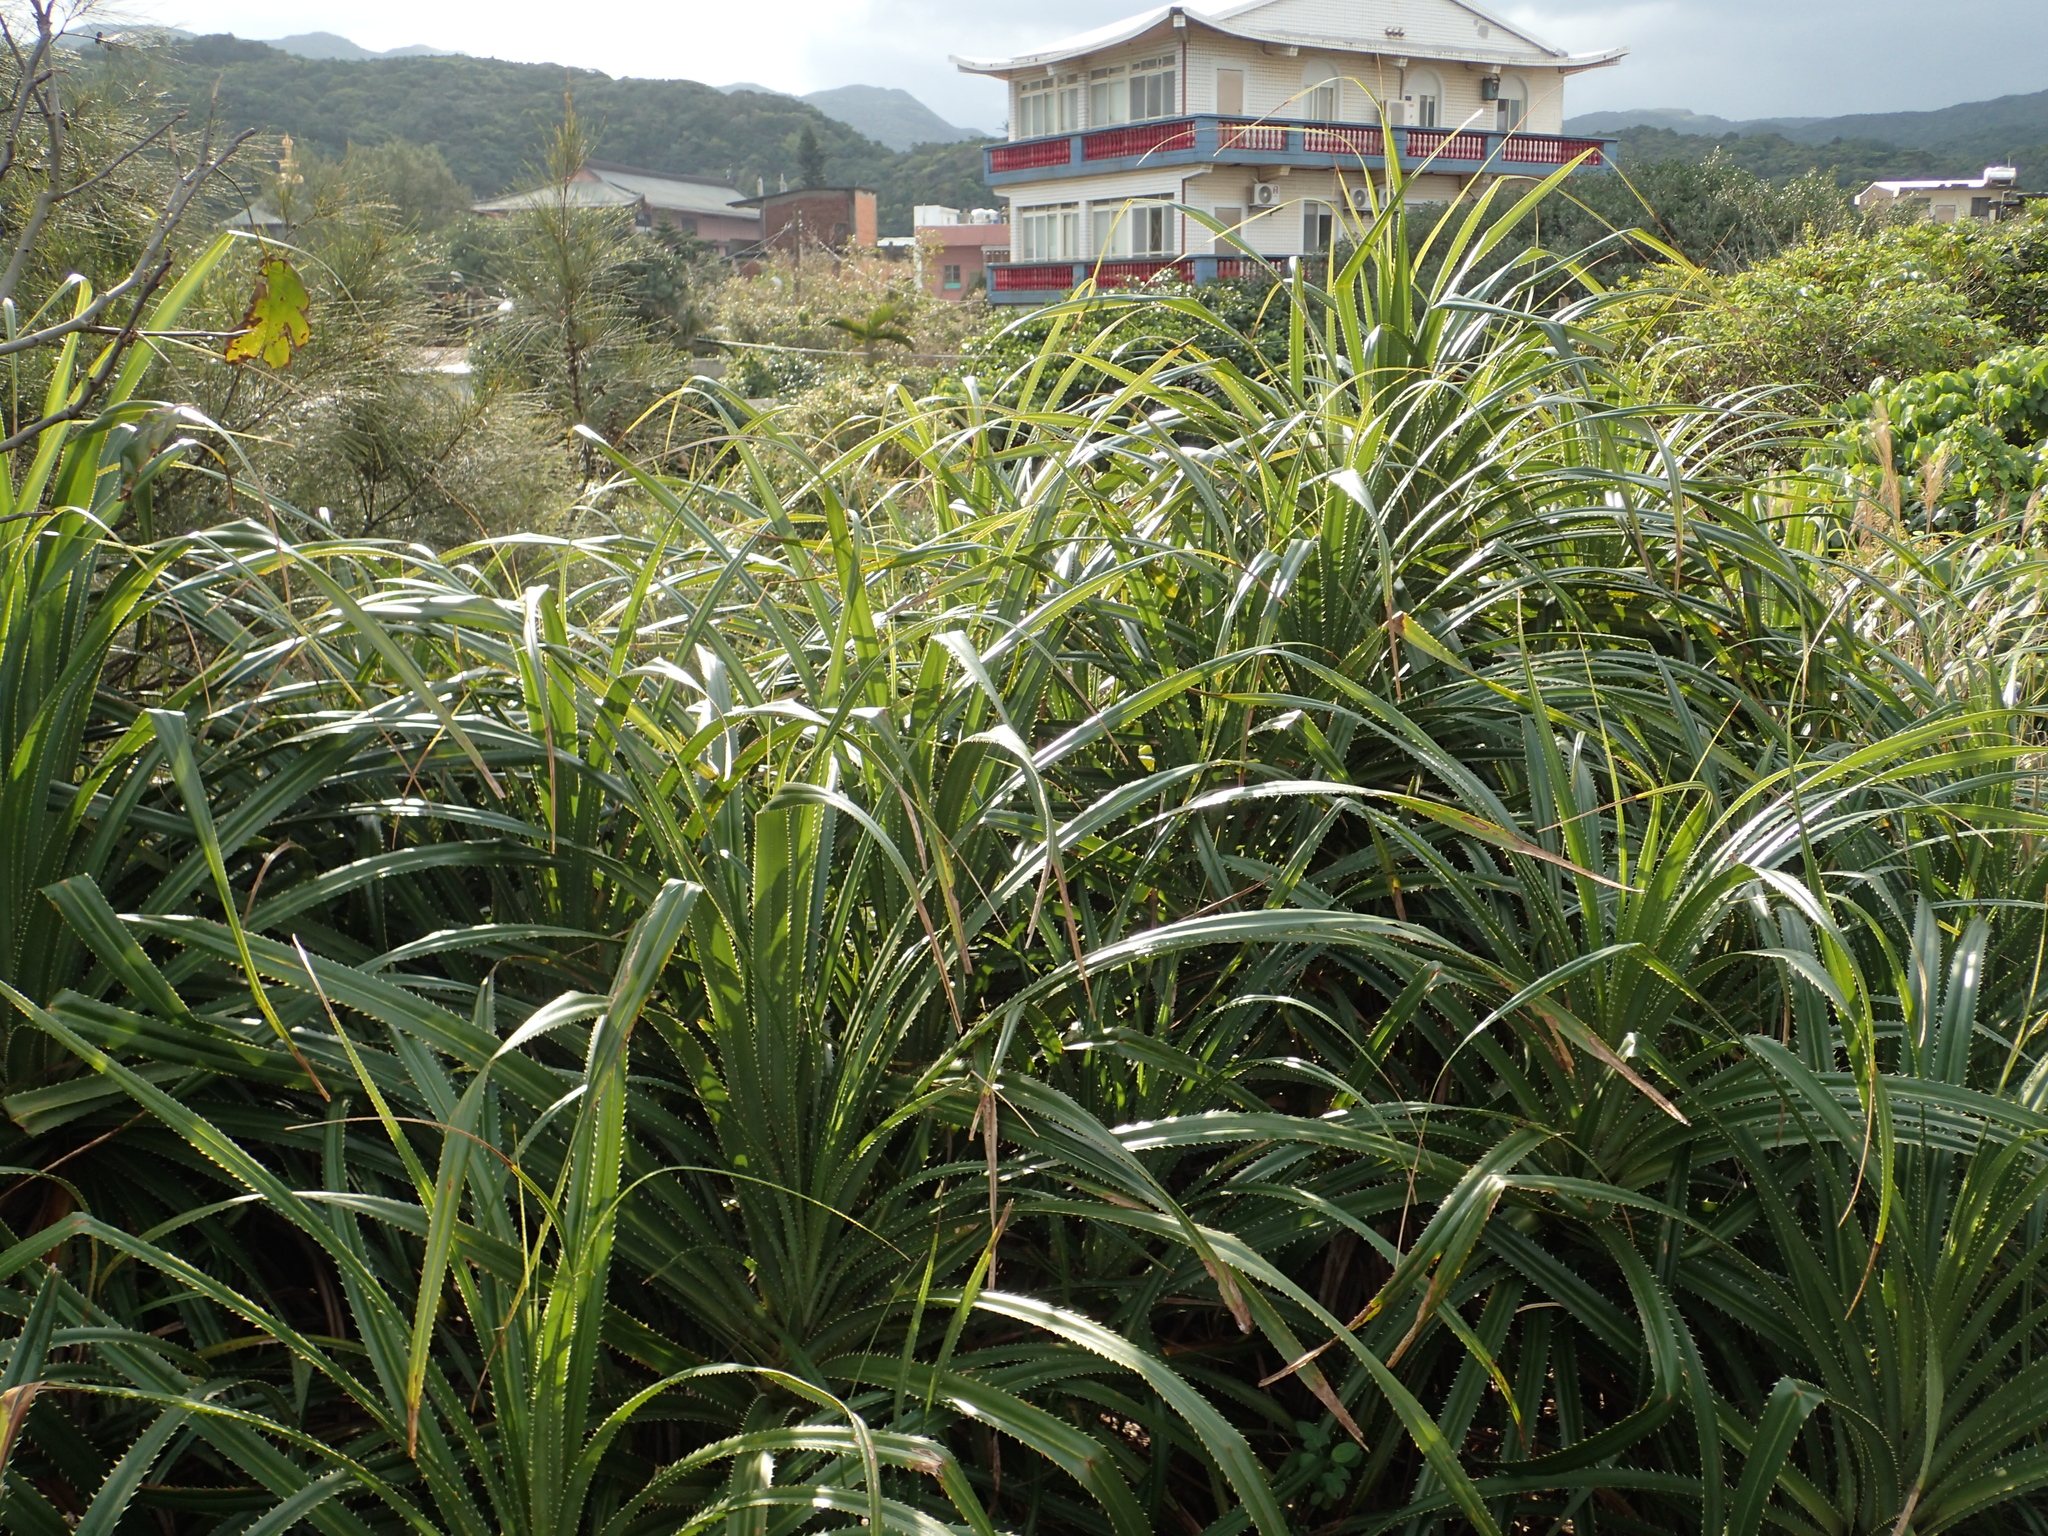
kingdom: Plantae
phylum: Tracheophyta
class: Liliopsida
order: Pandanales
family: Pandanaceae
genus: Pandanus
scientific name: Pandanus odorifer
